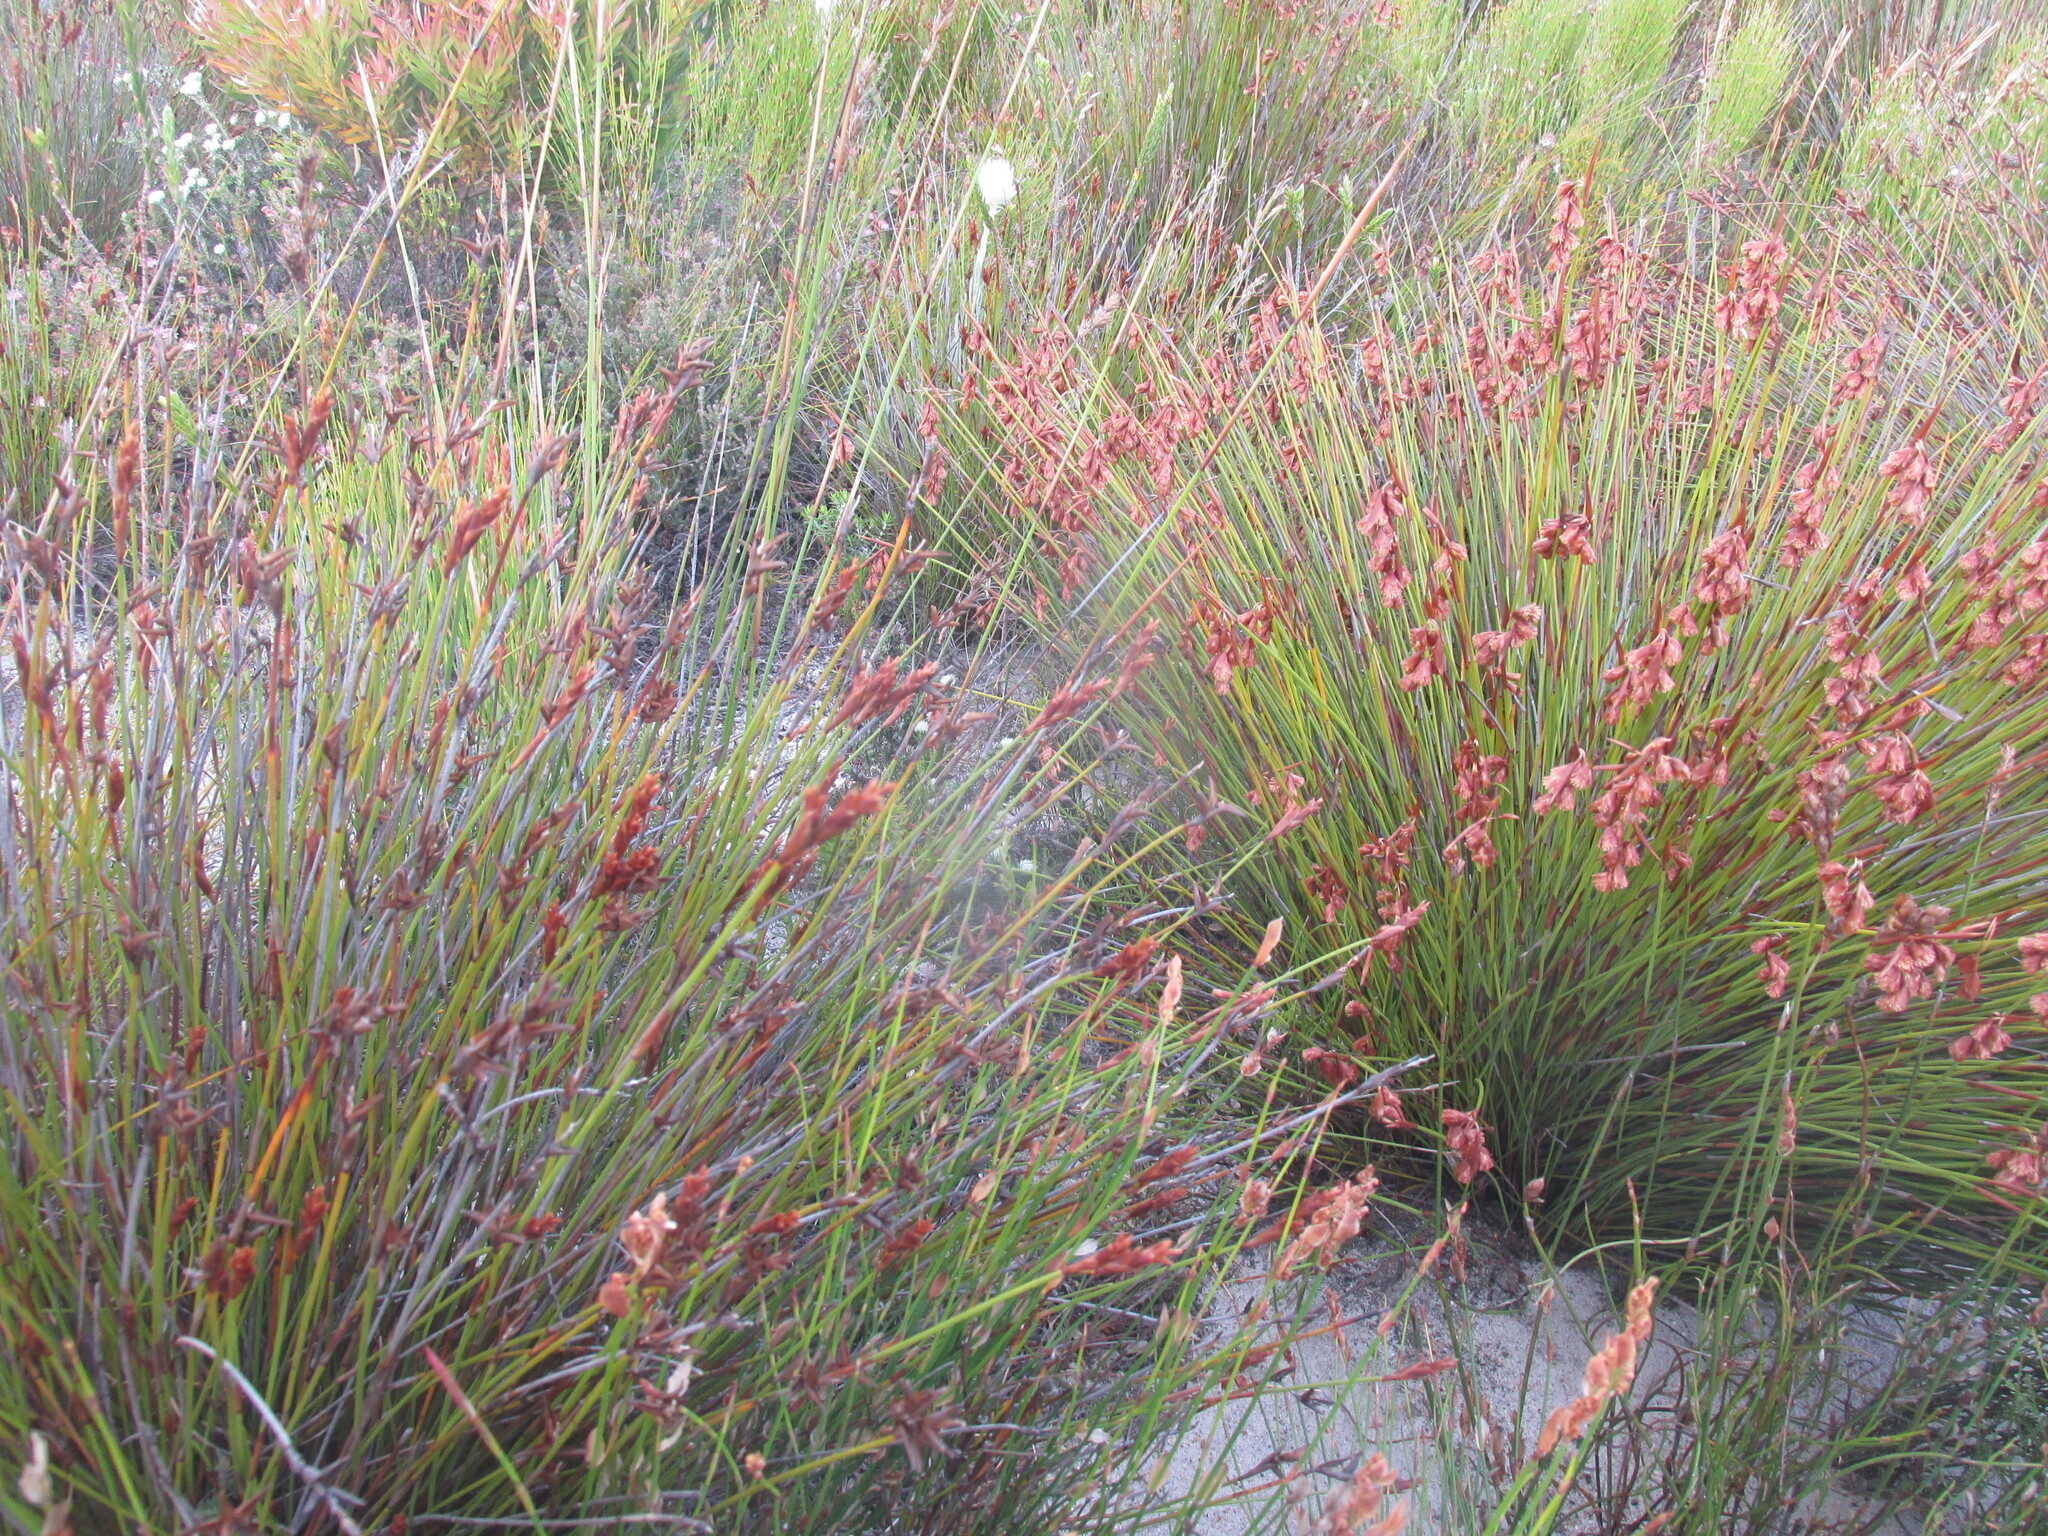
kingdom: Plantae
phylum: Tracheophyta
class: Liliopsida
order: Poales
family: Restionaceae
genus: Staberoha
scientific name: Staberoha banksii
